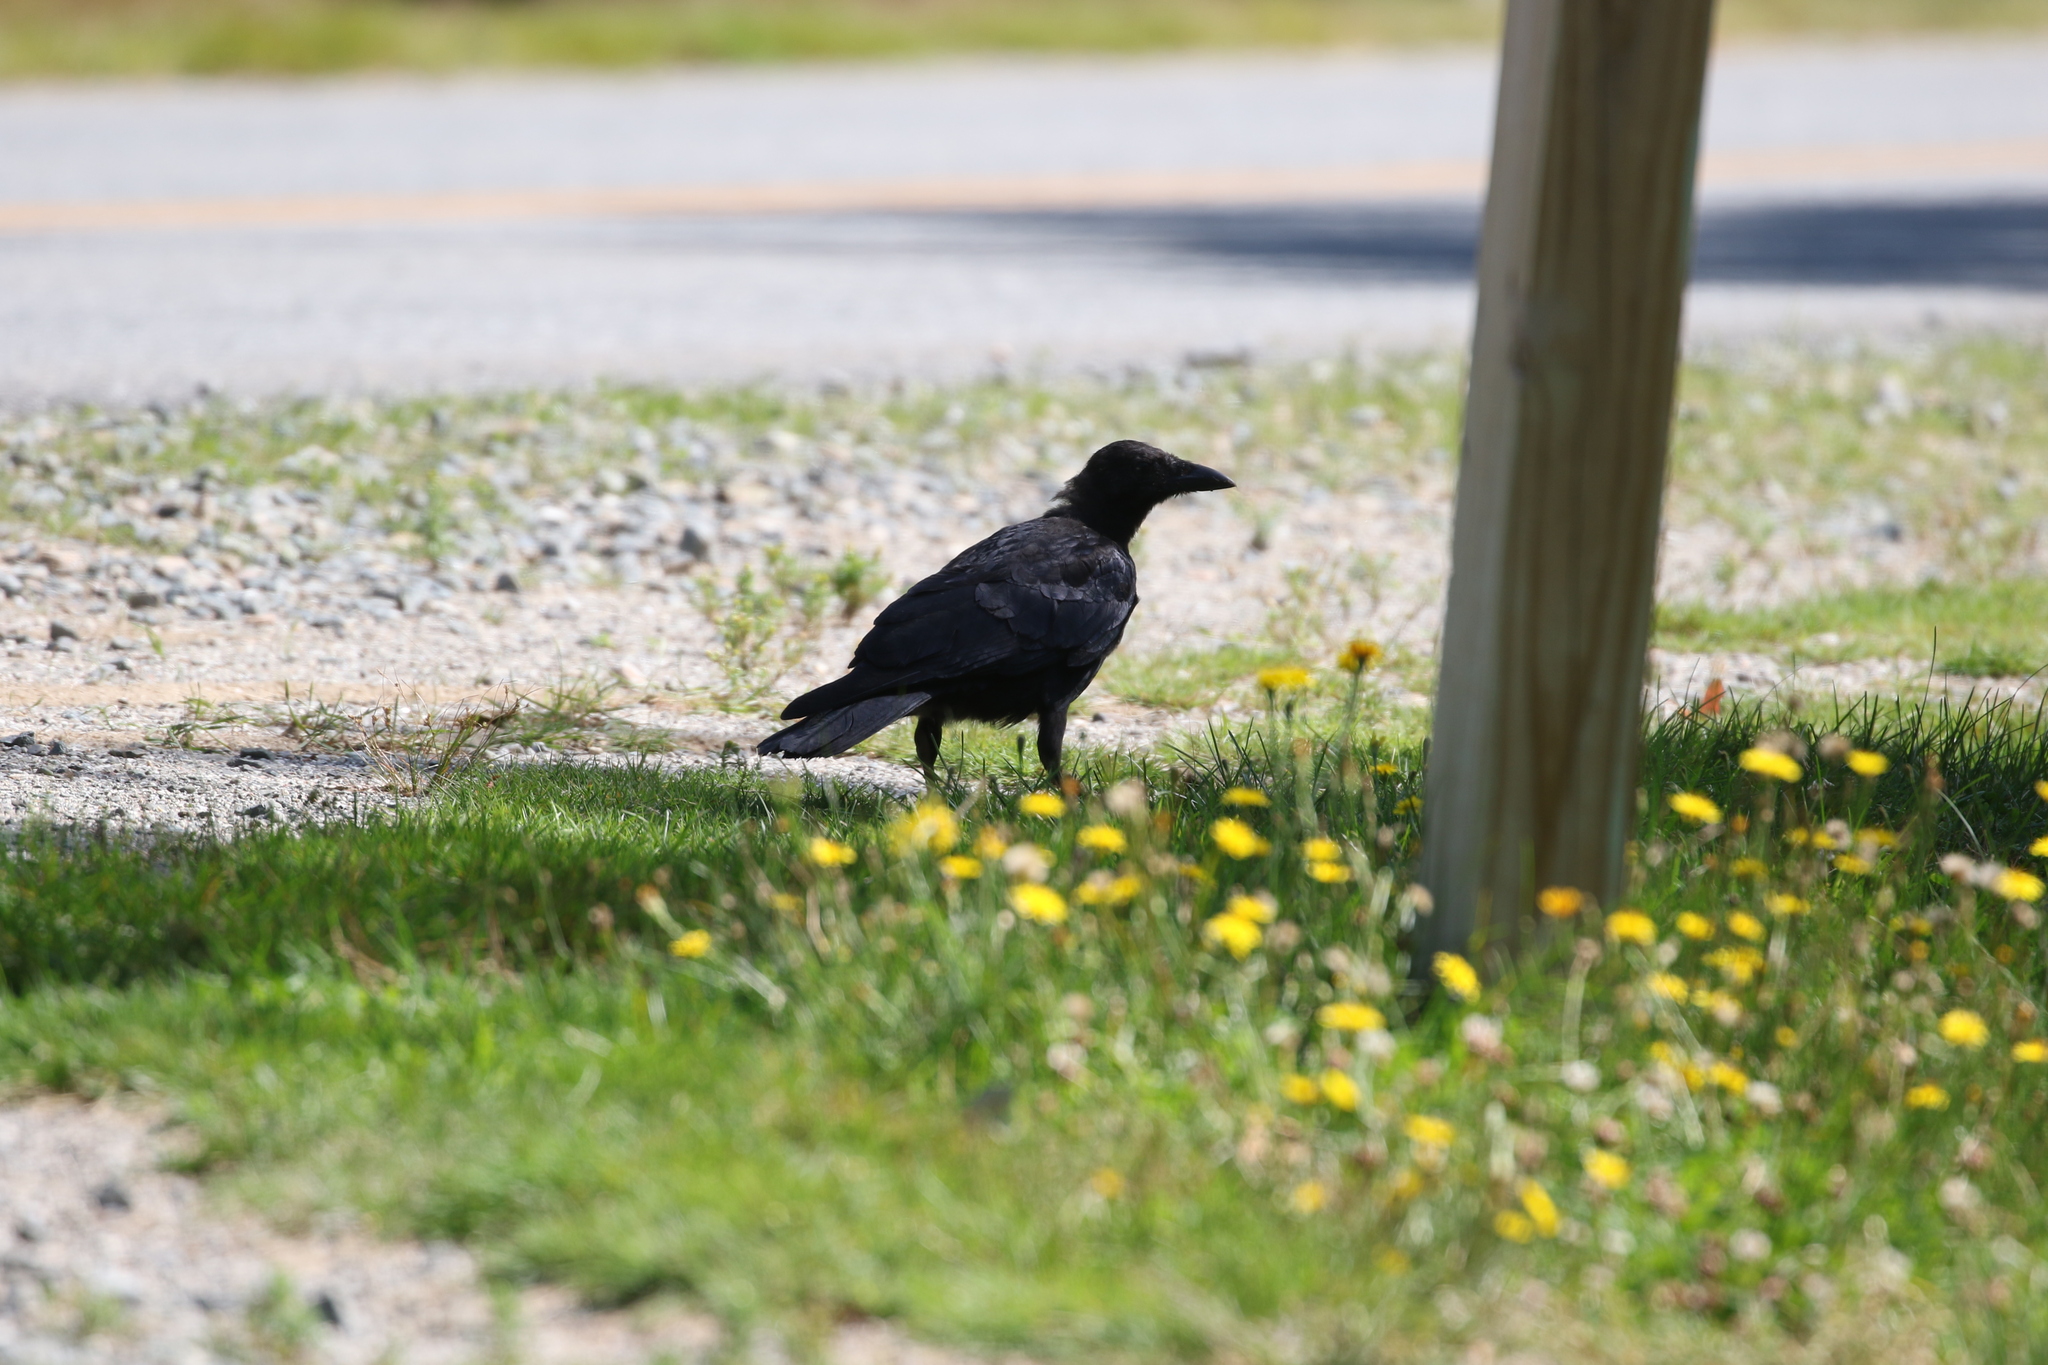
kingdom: Animalia
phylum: Chordata
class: Aves
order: Passeriformes
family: Corvidae
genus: Corvus
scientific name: Corvus brachyrhynchos
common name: American crow
